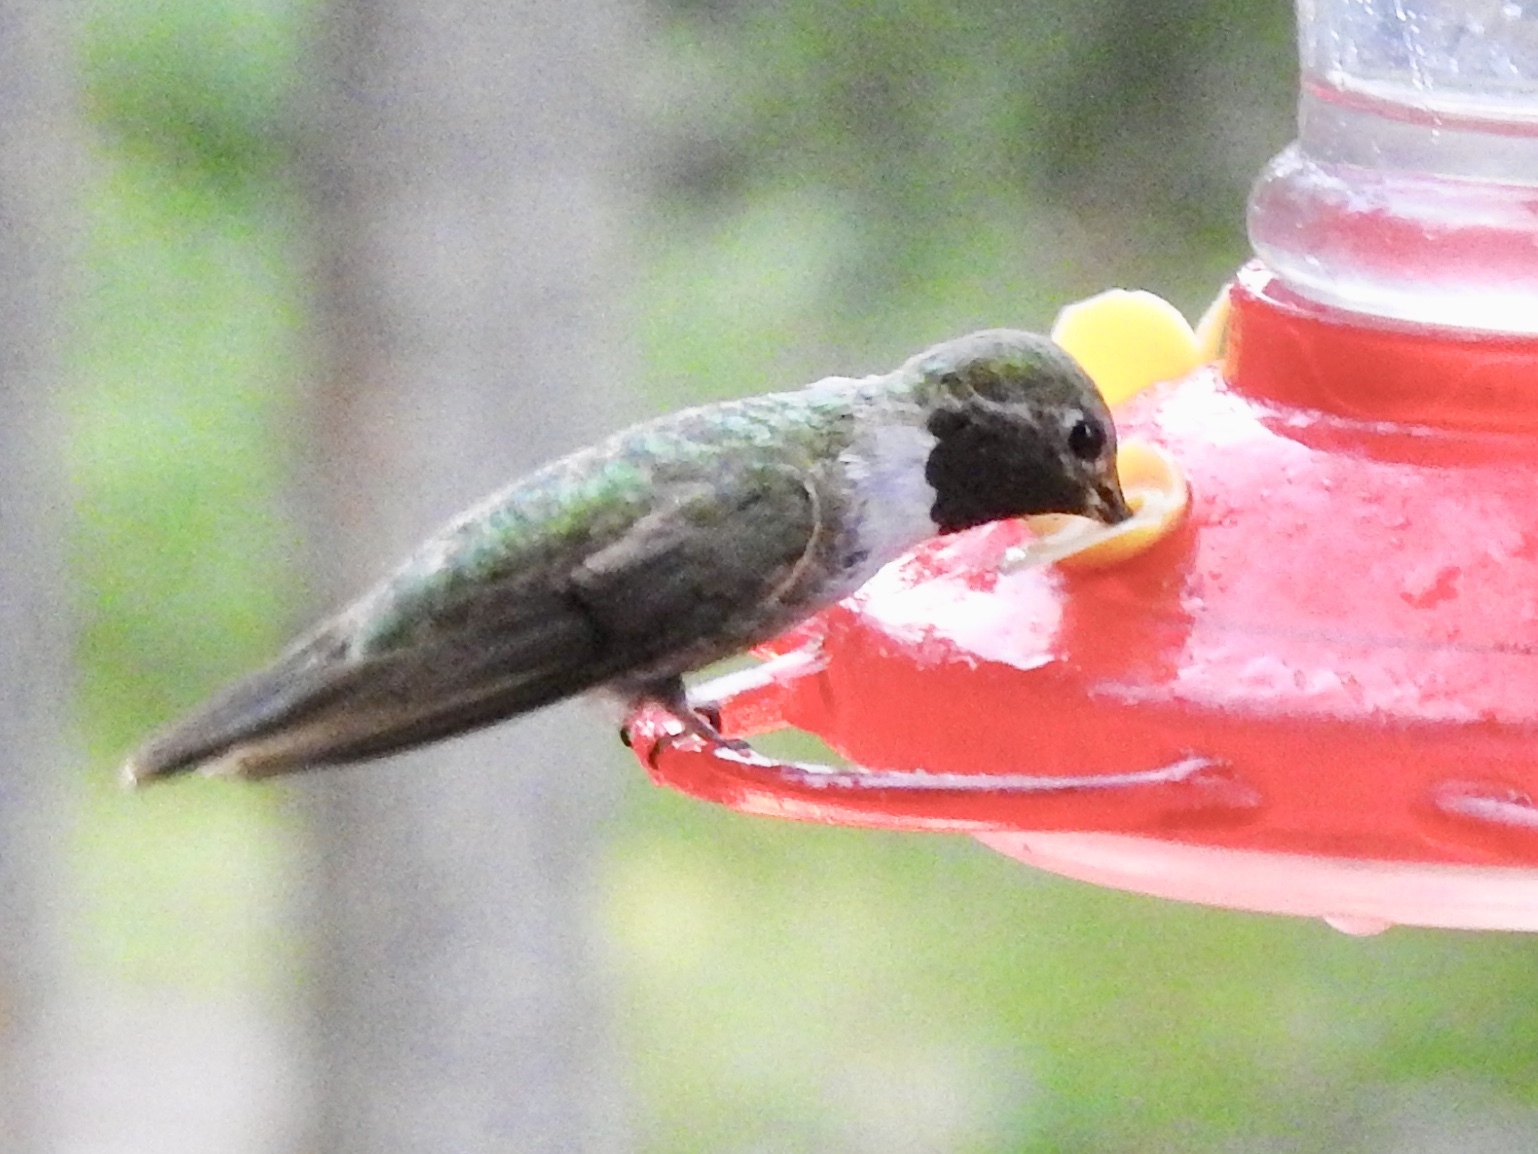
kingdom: Animalia
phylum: Chordata
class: Aves
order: Apodiformes
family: Trochilidae
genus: Selasphorus
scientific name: Selasphorus platycercus
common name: Broad-tailed hummingbird
